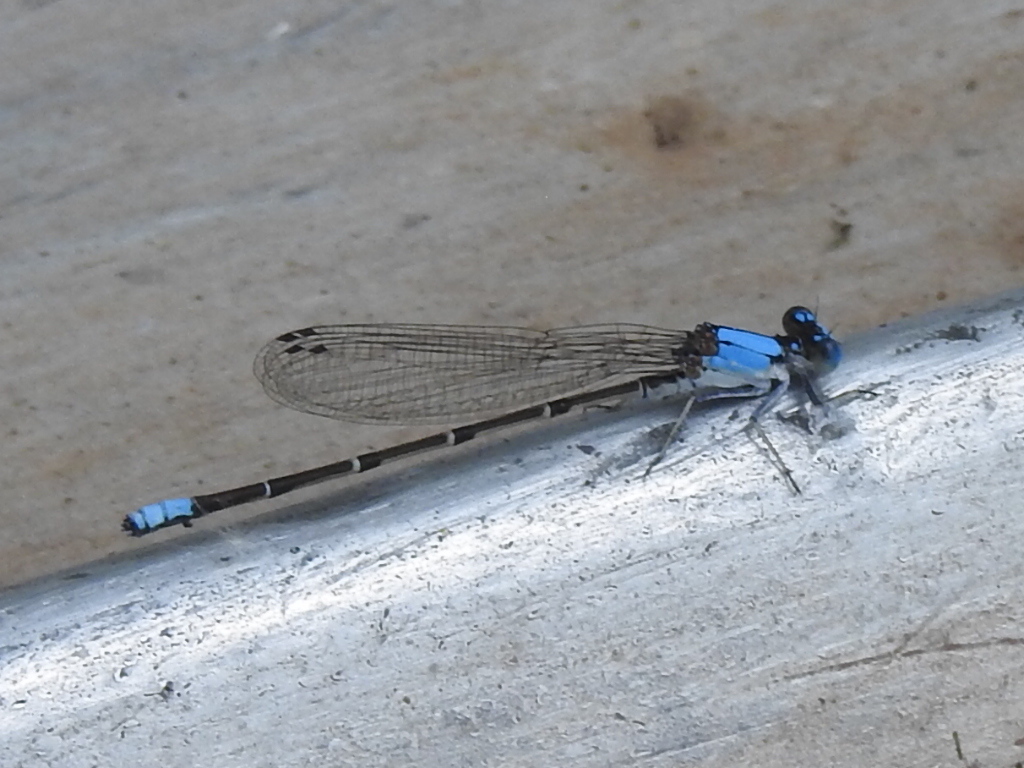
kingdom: Animalia
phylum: Arthropoda
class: Insecta
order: Odonata
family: Coenagrionidae
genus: Argia
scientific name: Argia apicalis
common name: Blue-fronted dancer
